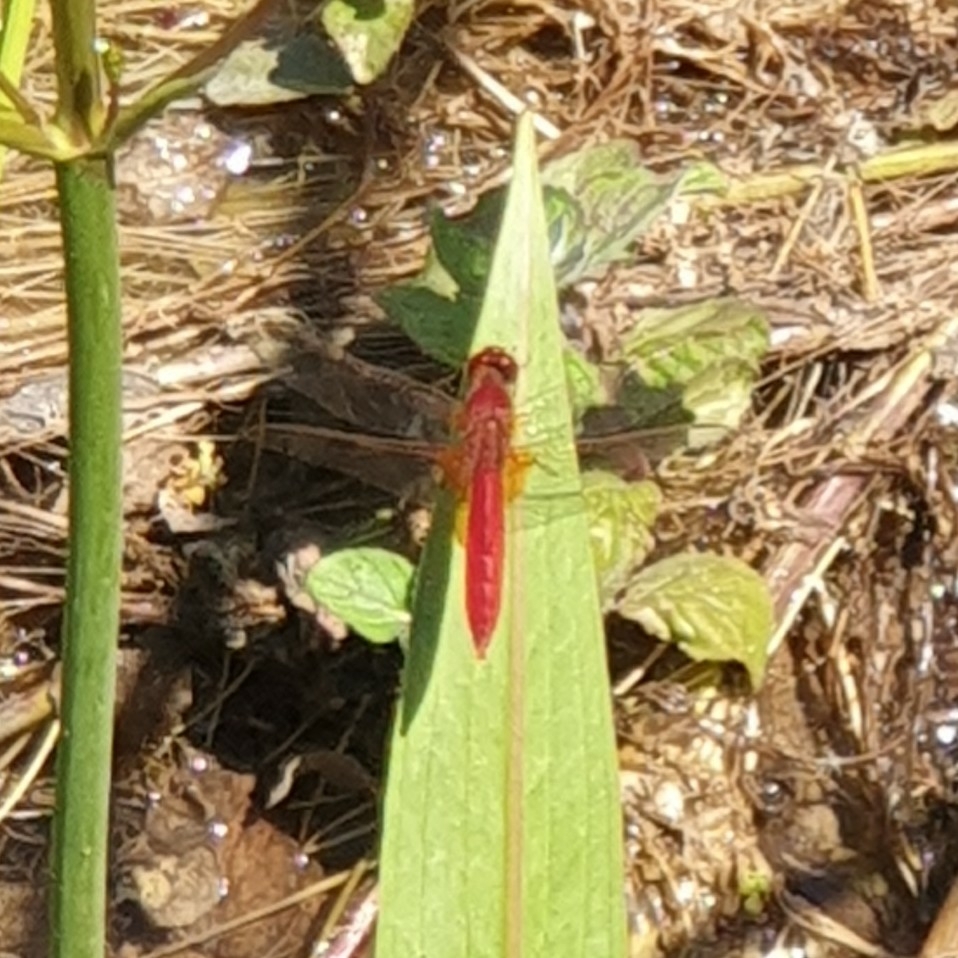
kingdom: Animalia
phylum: Arthropoda
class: Insecta
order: Odonata
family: Libellulidae
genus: Crocothemis
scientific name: Crocothemis erythraea
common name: Scarlet dragonfly
